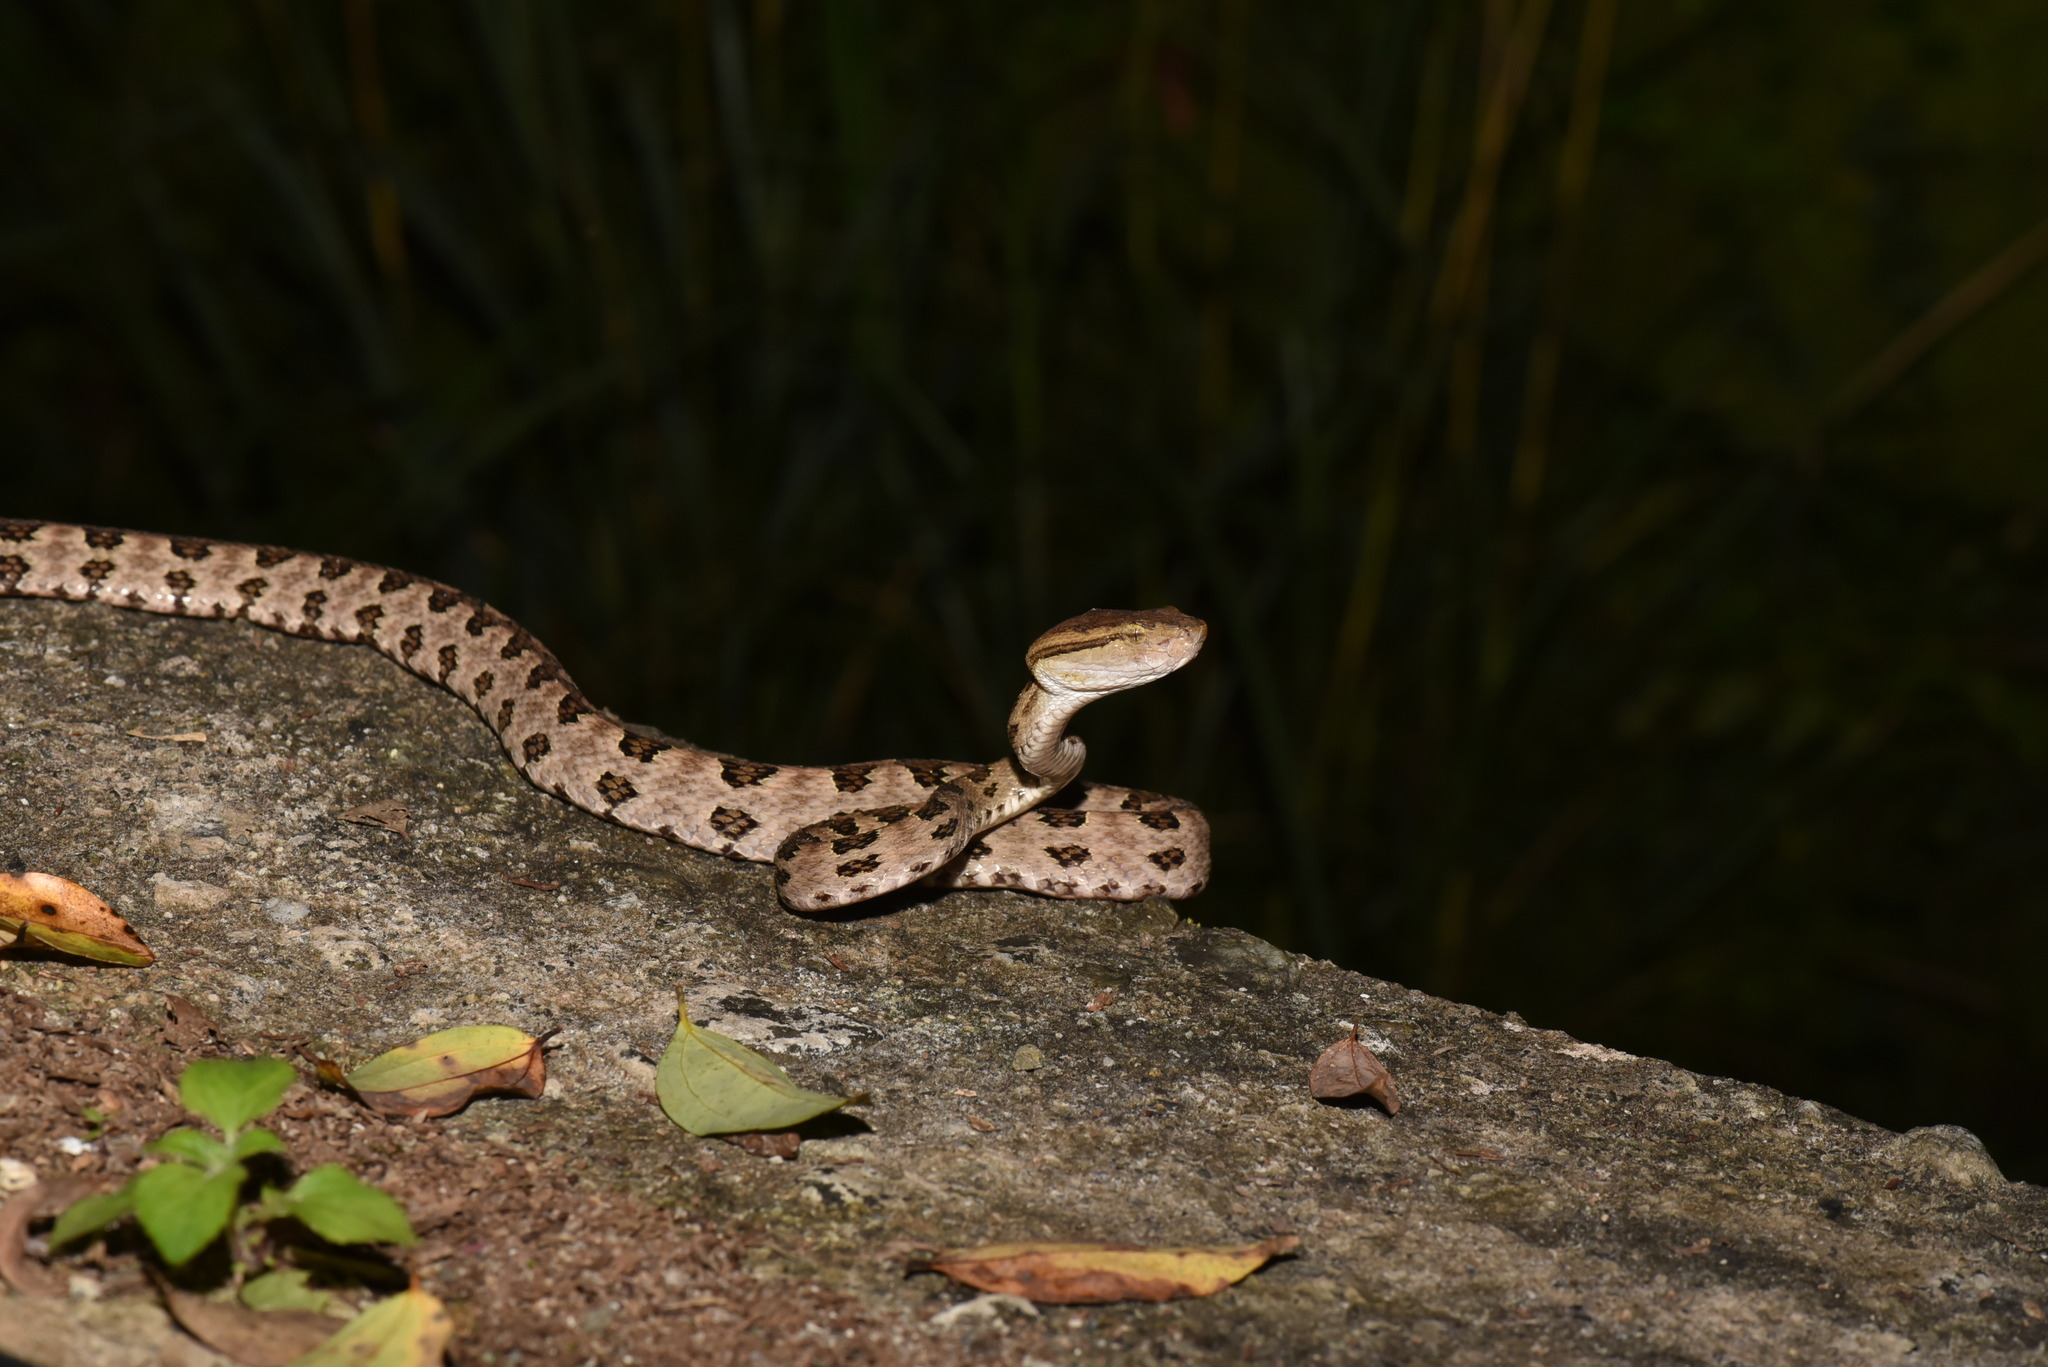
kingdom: Animalia
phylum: Chordata
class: Squamata
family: Viperidae
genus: Protobothrops
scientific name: Protobothrops mucrosquamatus
